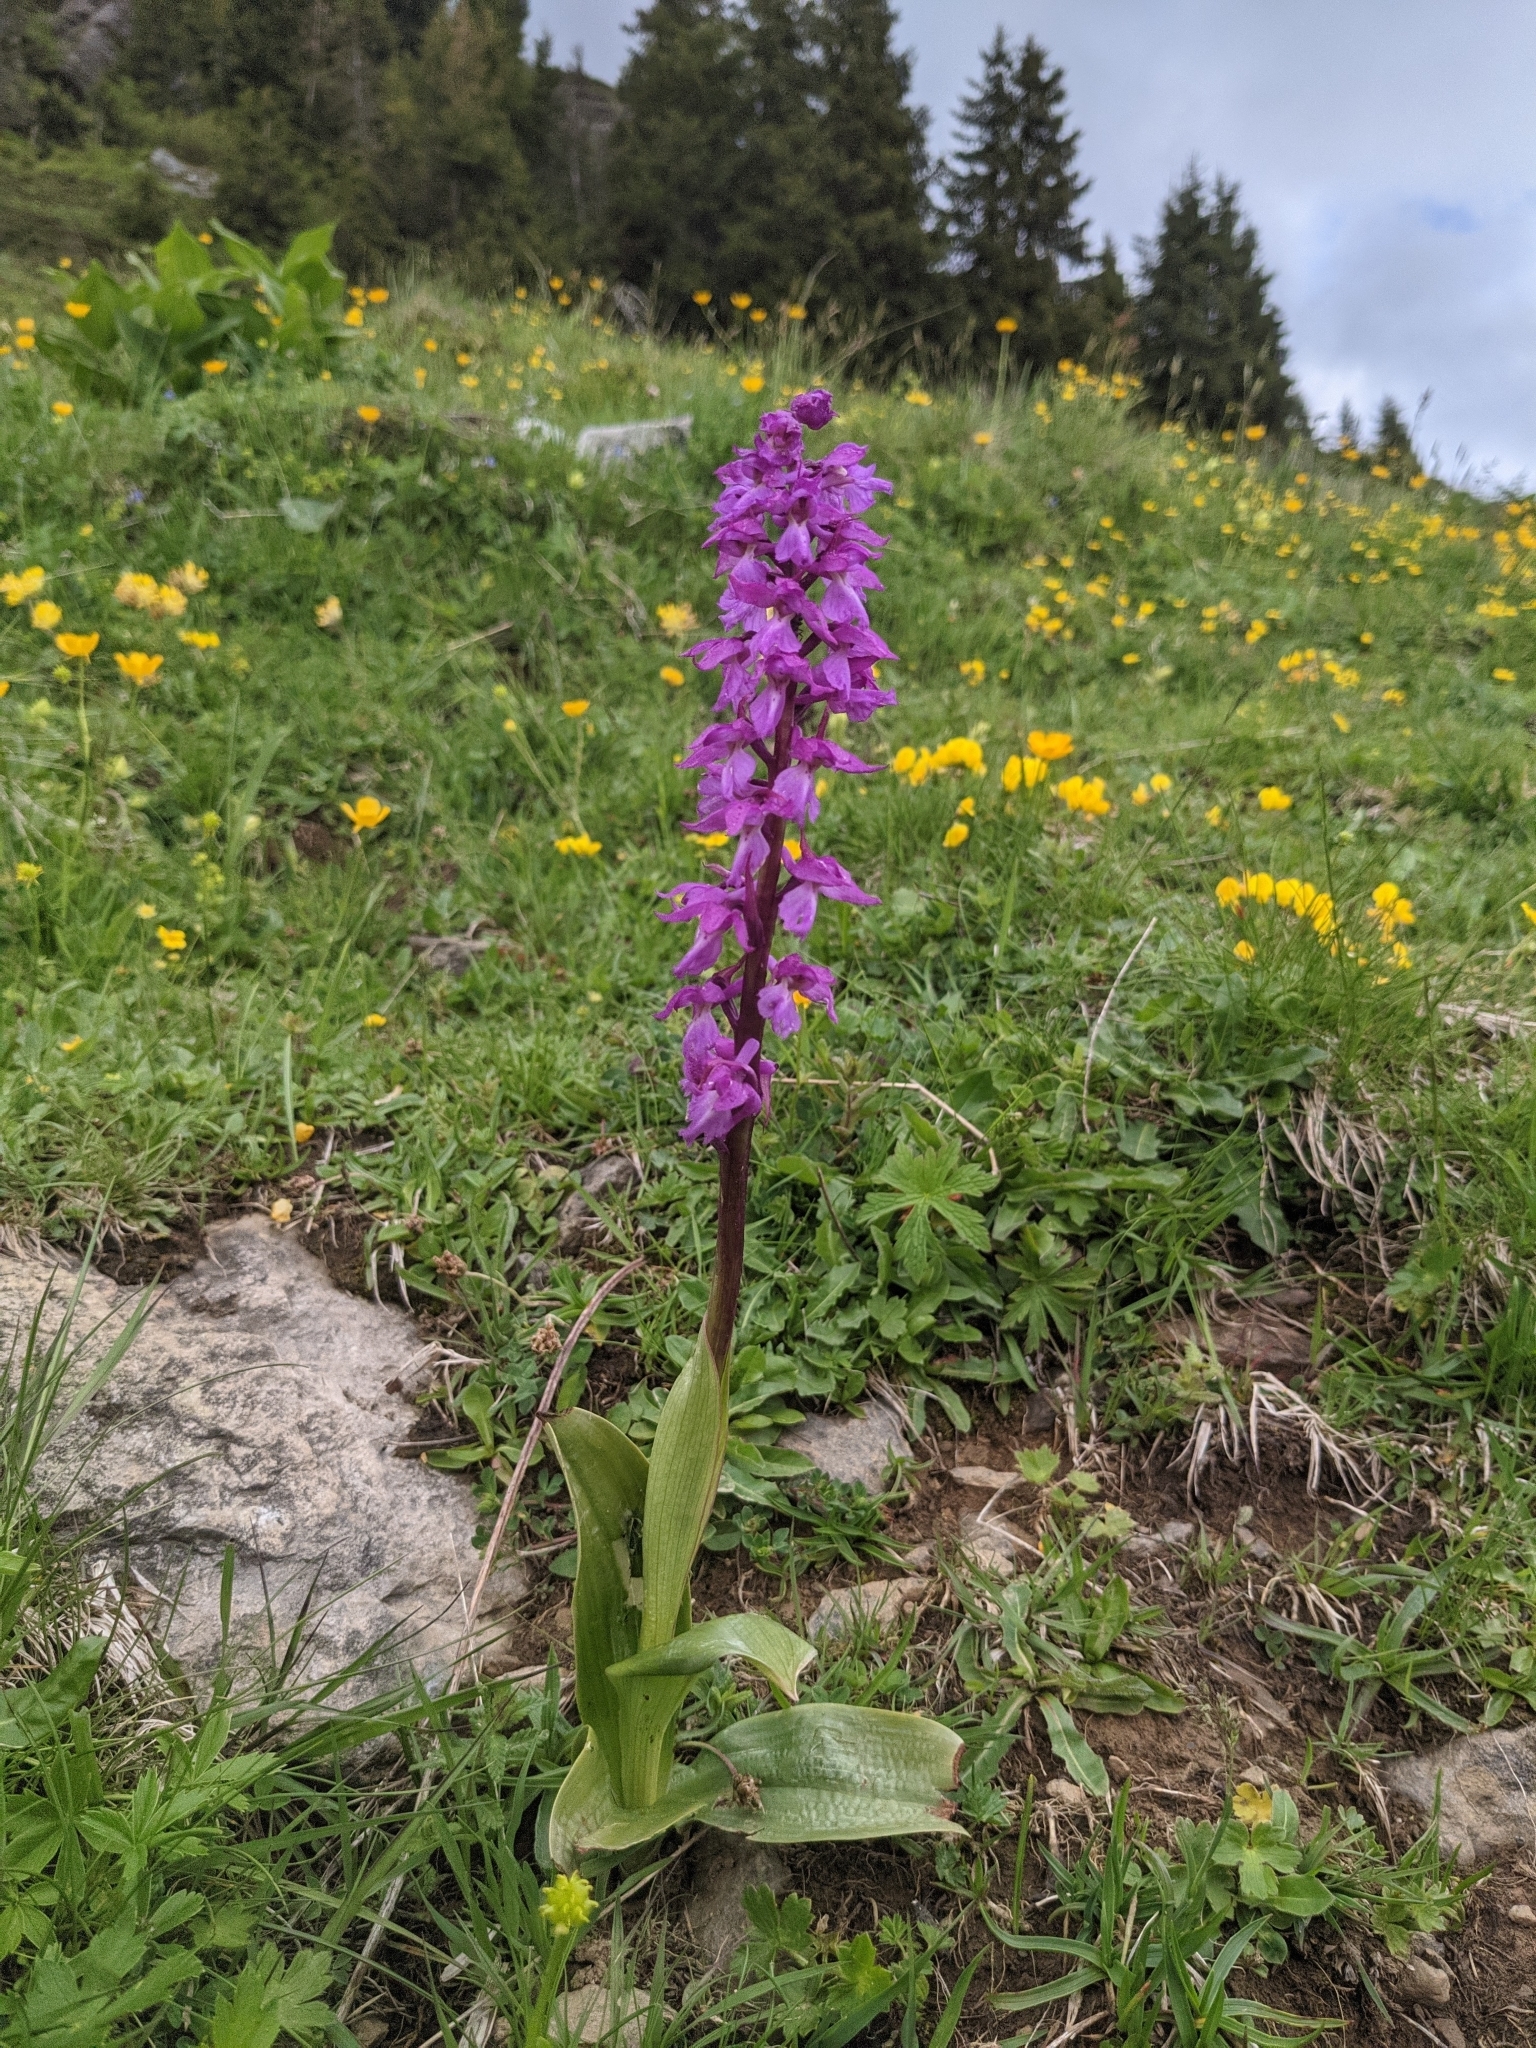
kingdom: Plantae
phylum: Tracheophyta
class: Liliopsida
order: Asparagales
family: Orchidaceae
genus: Orchis
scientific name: Orchis mascula
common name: Early-purple orchid
